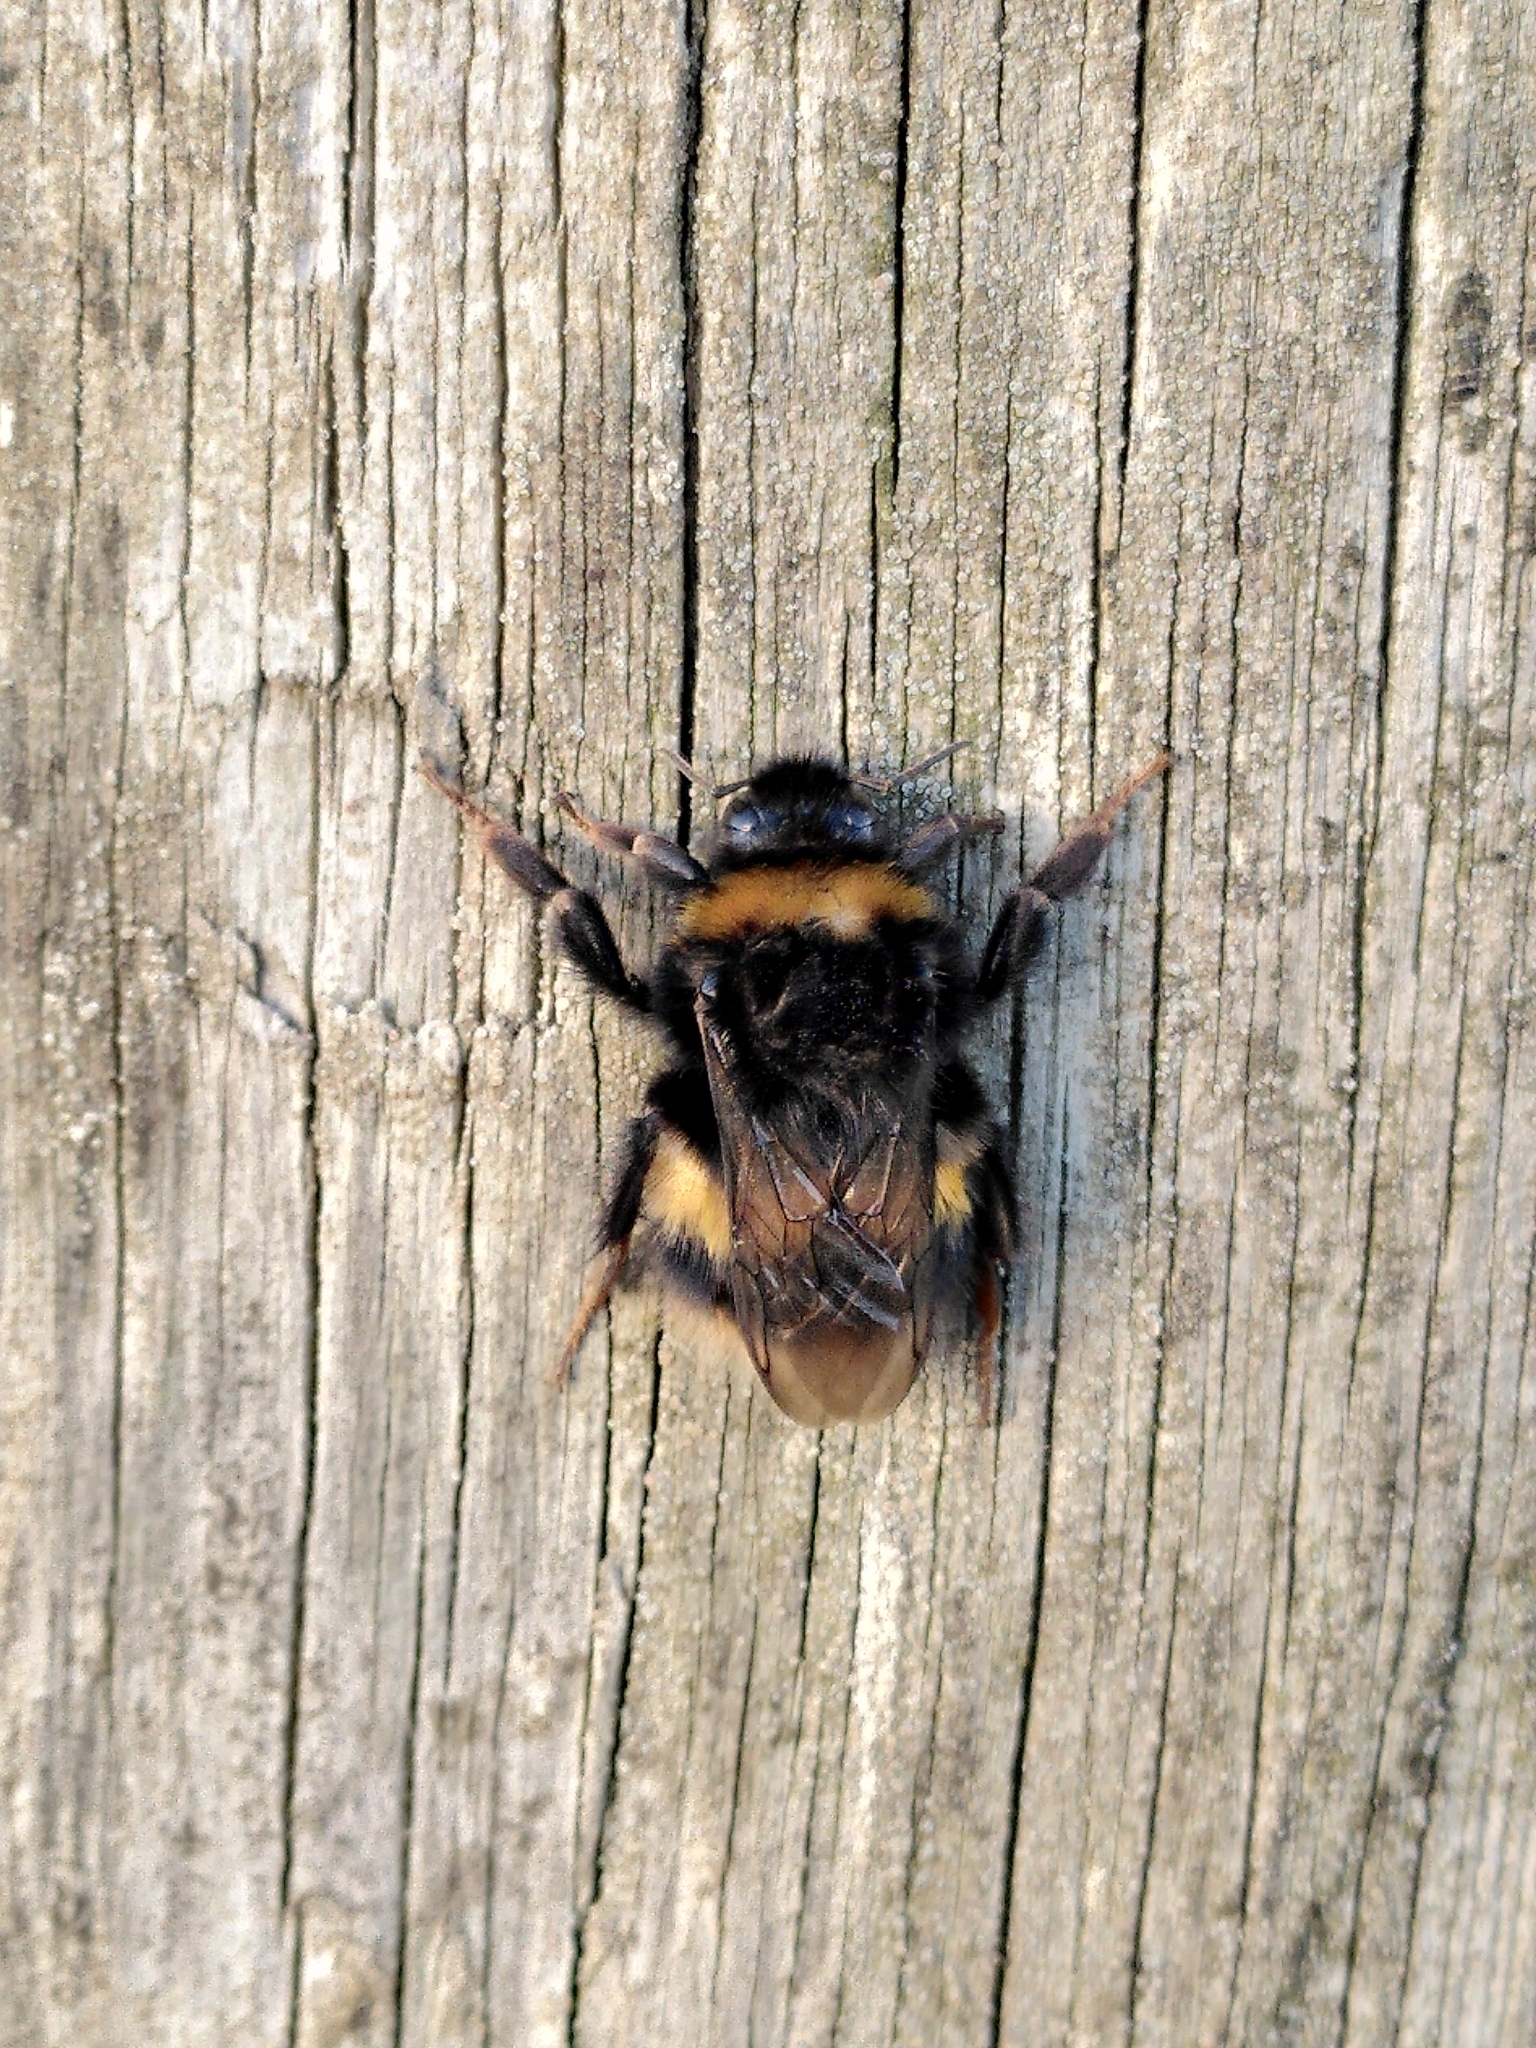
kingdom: Animalia
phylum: Arthropoda
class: Insecta
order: Hymenoptera
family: Apidae
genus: Bombus
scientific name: Bombus terrestris
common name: Buff-tailed bumblebee
